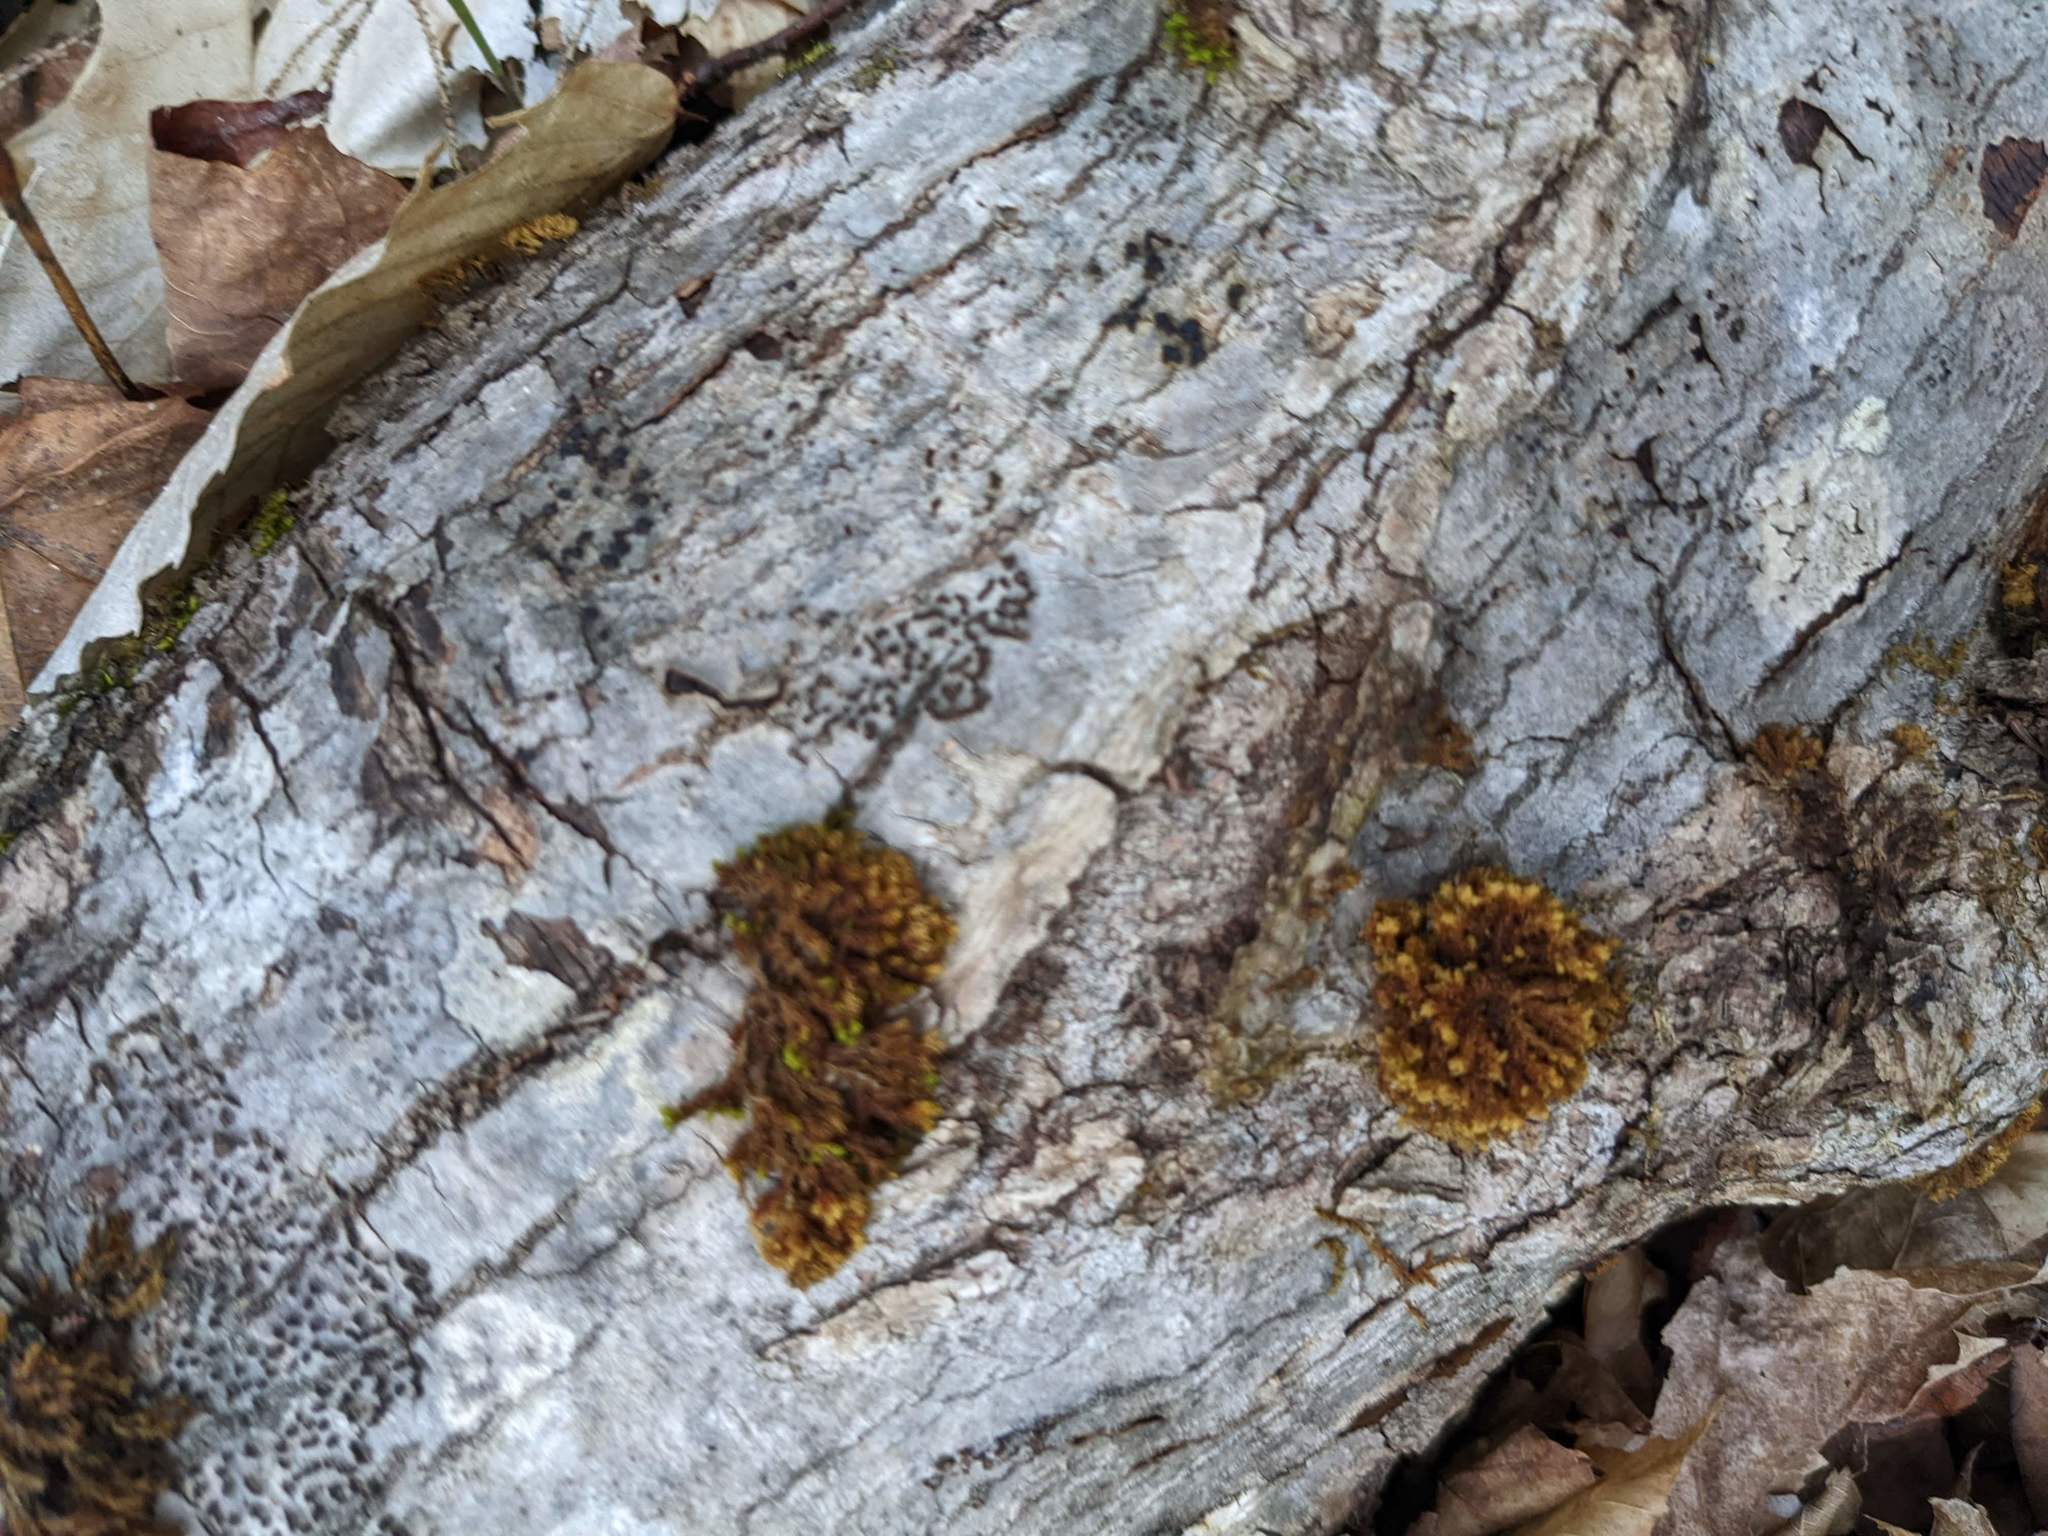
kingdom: Plantae
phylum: Bryophyta
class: Bryopsida
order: Orthotrichales
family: Orthotrichaceae
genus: Ulota
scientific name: Ulota crispa
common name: Crisped pincushion moss
